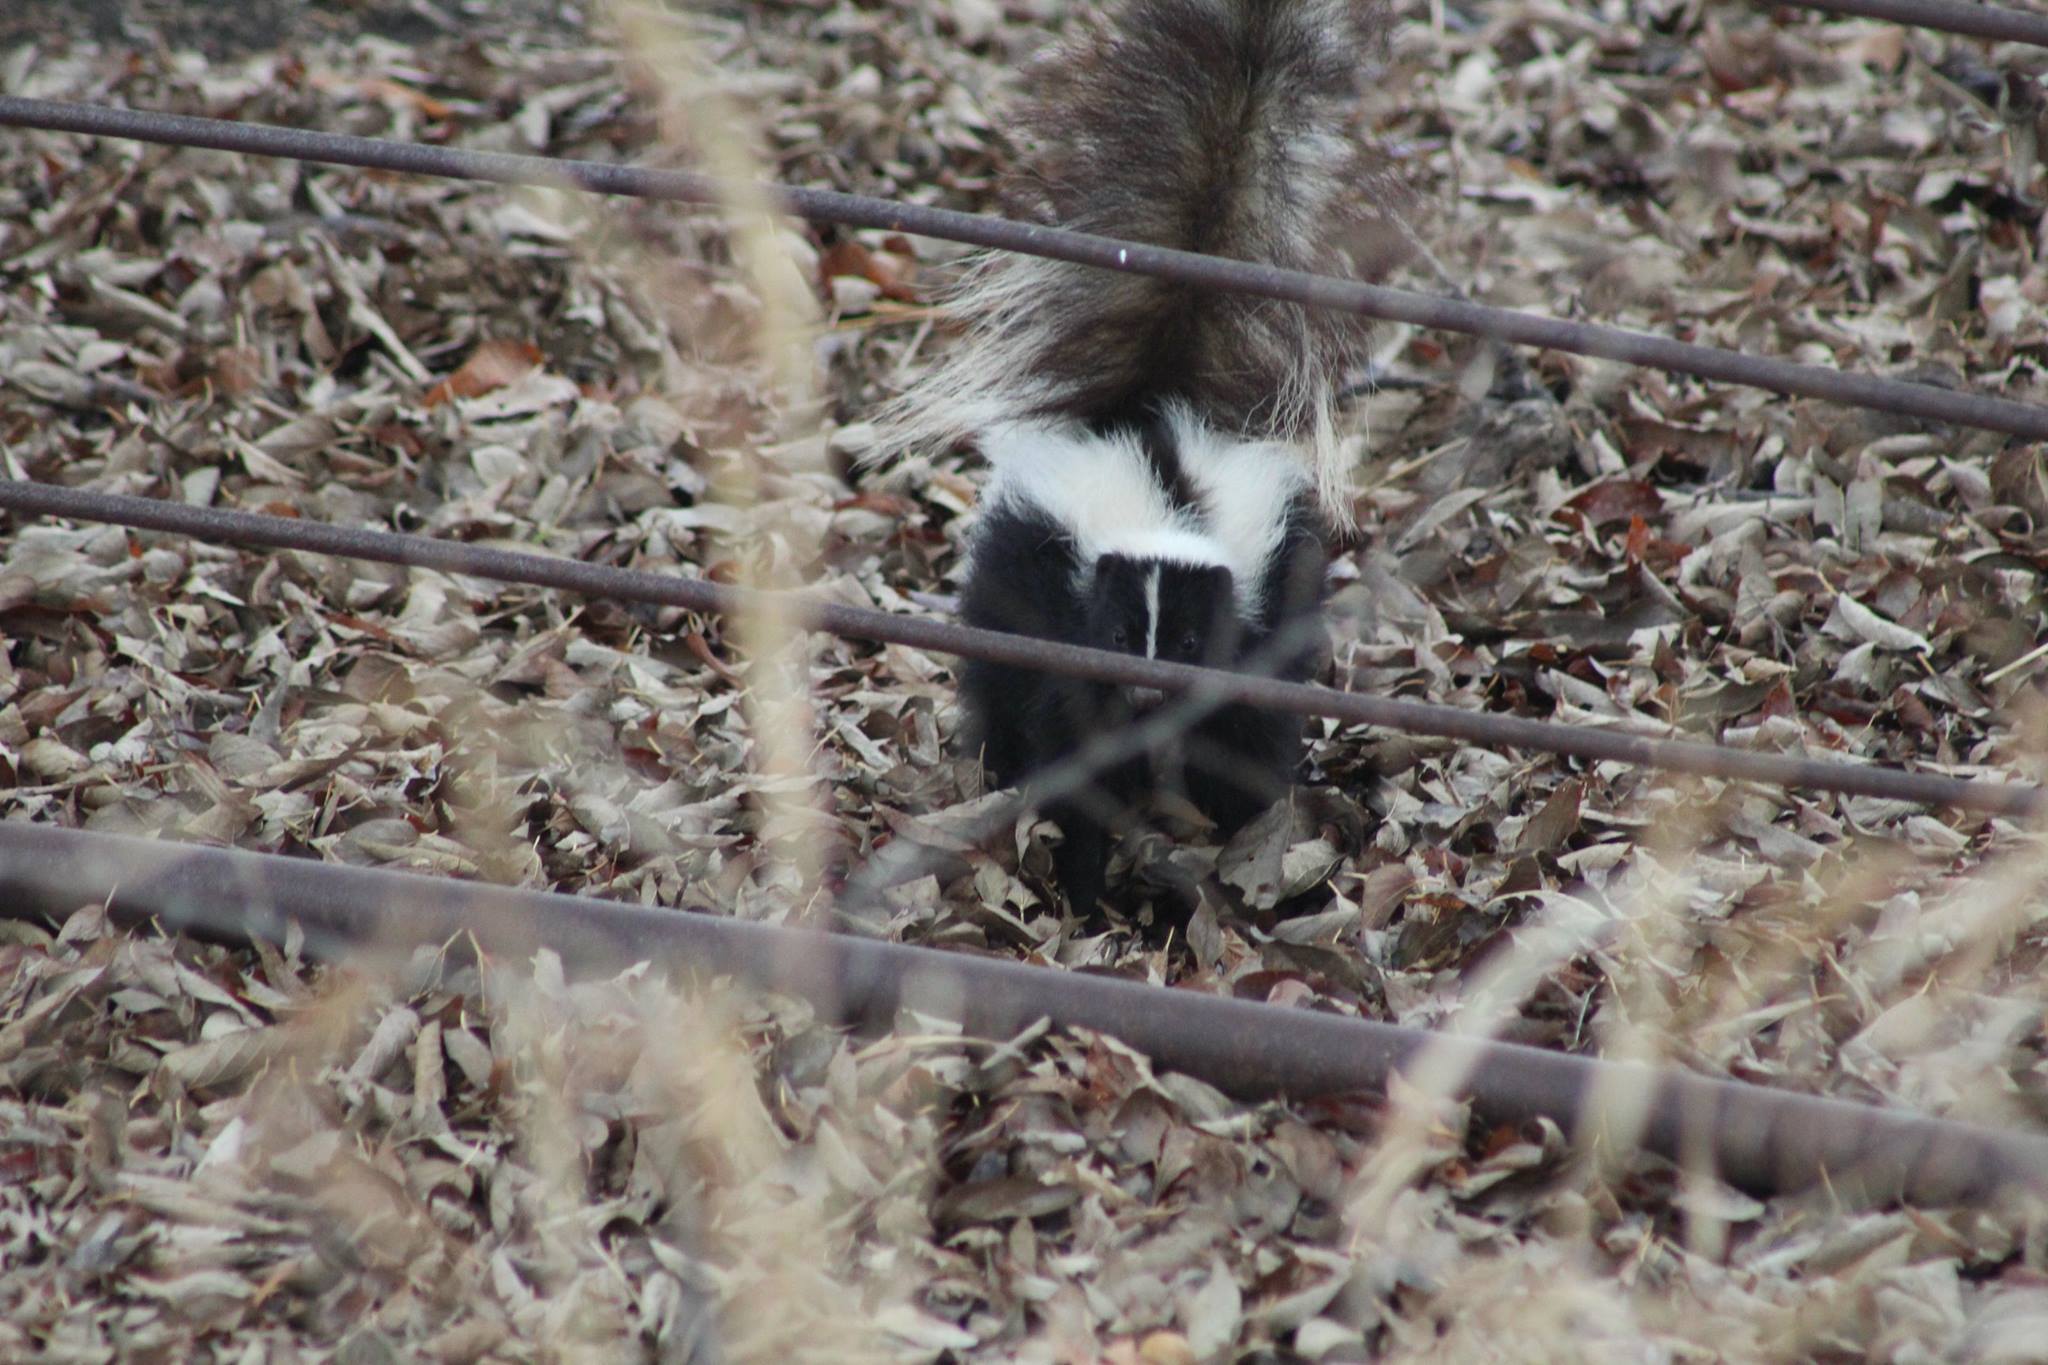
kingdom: Animalia
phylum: Chordata
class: Mammalia
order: Carnivora
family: Mephitidae
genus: Mephitis
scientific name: Mephitis mephitis
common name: Striped skunk
